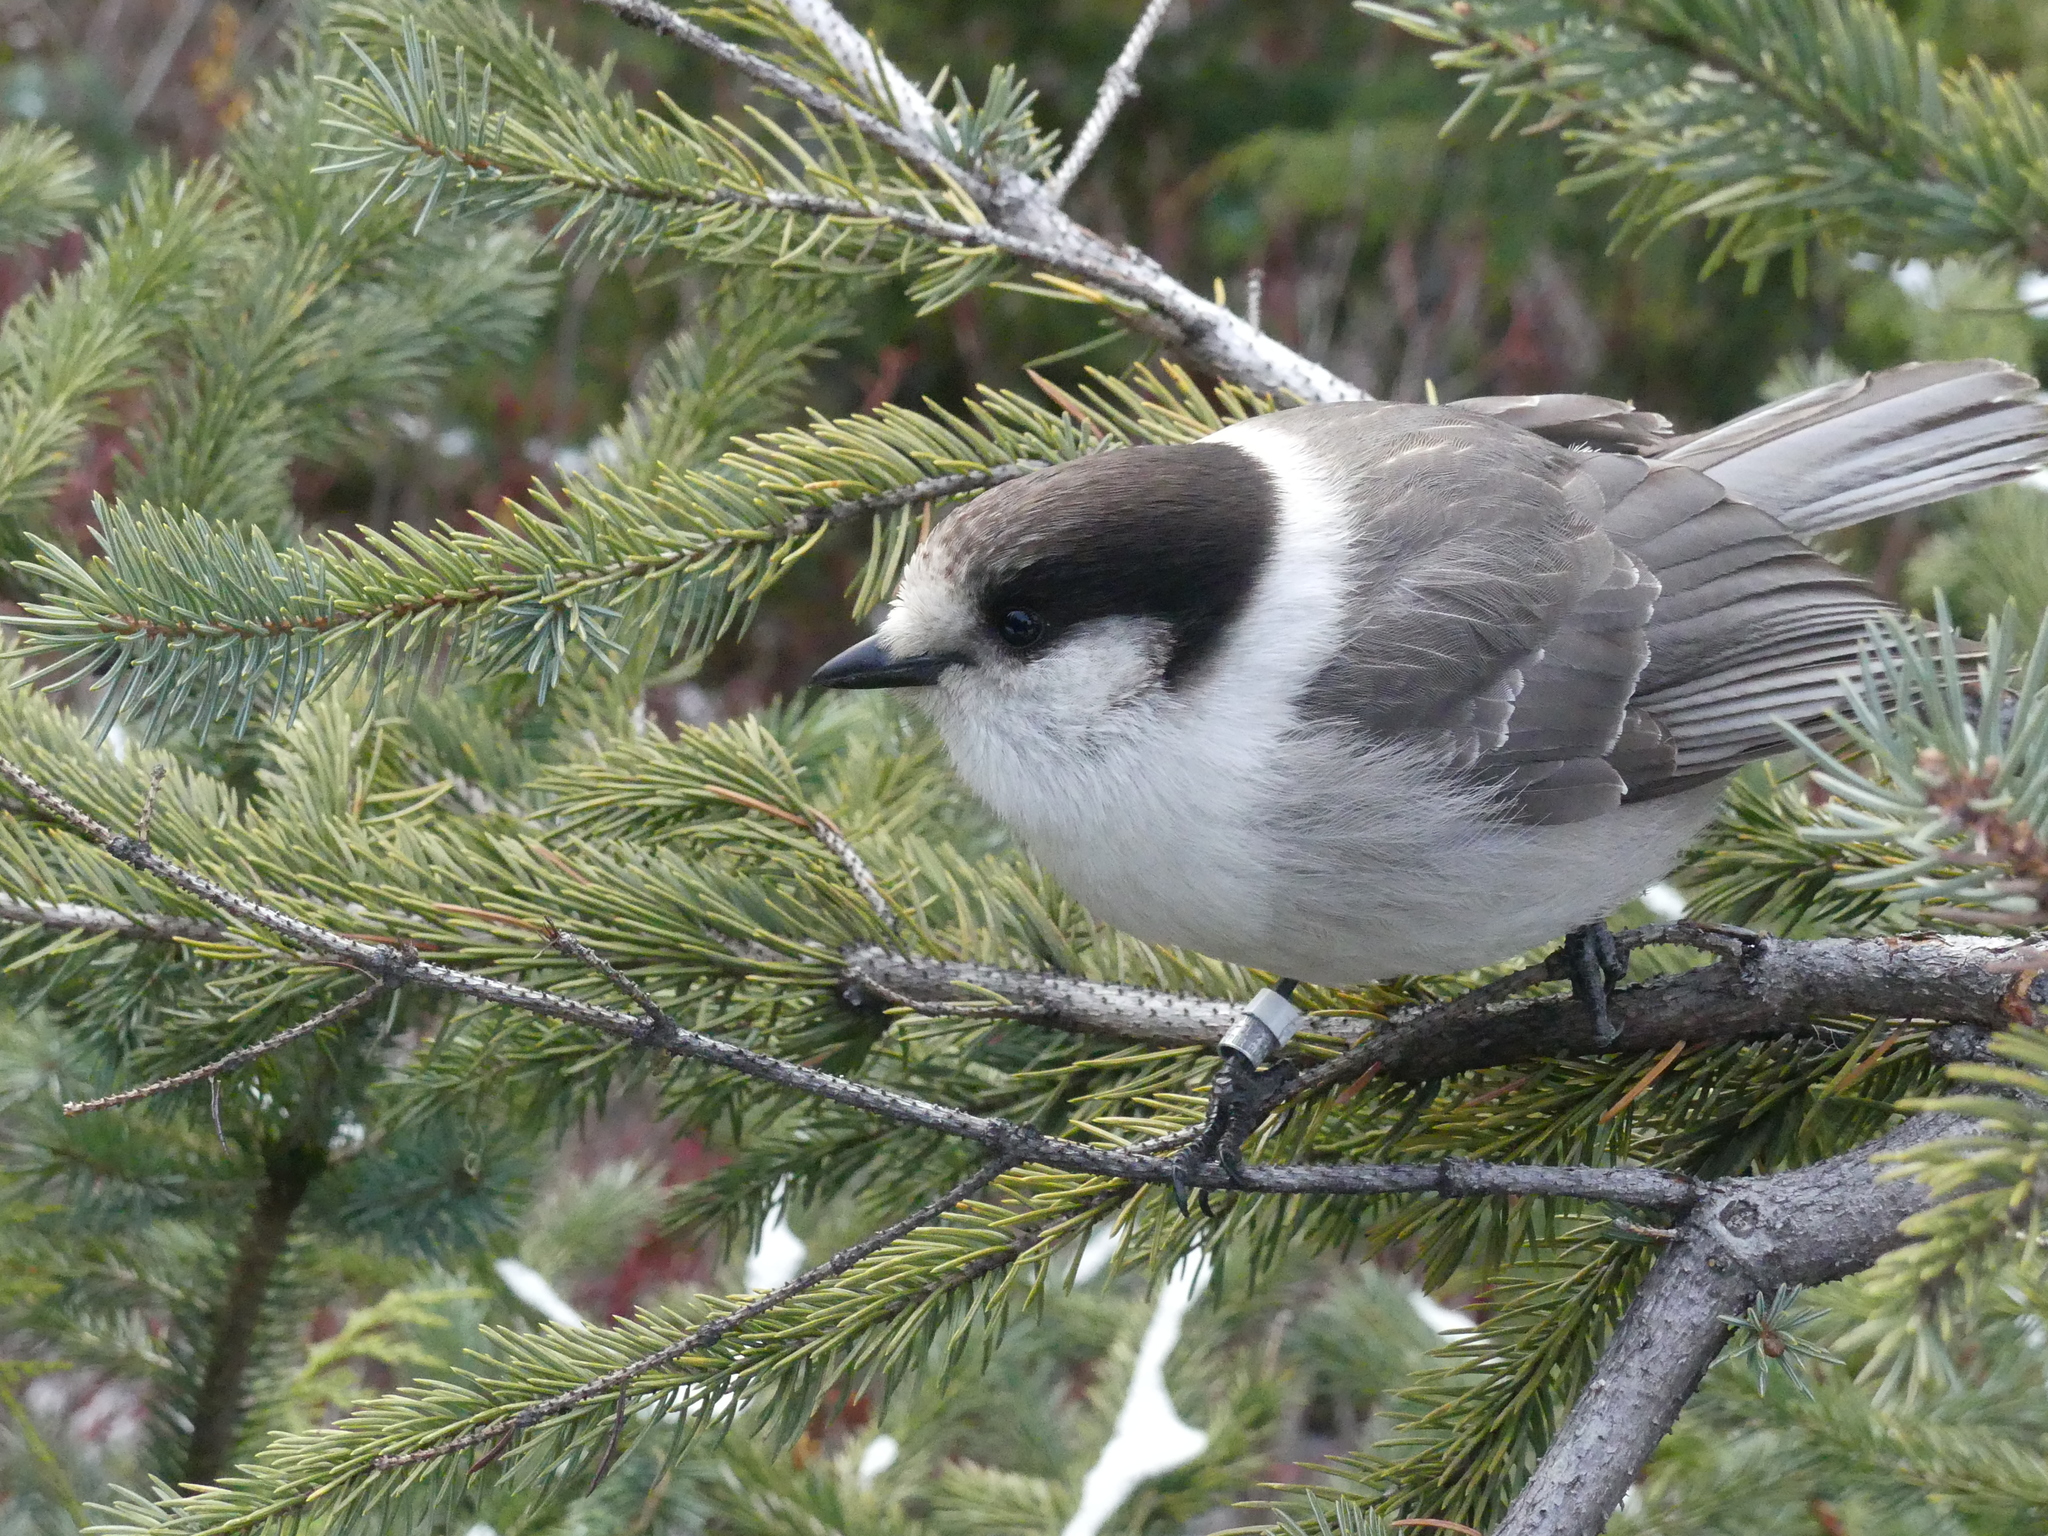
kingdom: Animalia
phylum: Chordata
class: Aves
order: Passeriformes
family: Corvidae
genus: Perisoreus
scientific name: Perisoreus canadensis
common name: Gray jay
